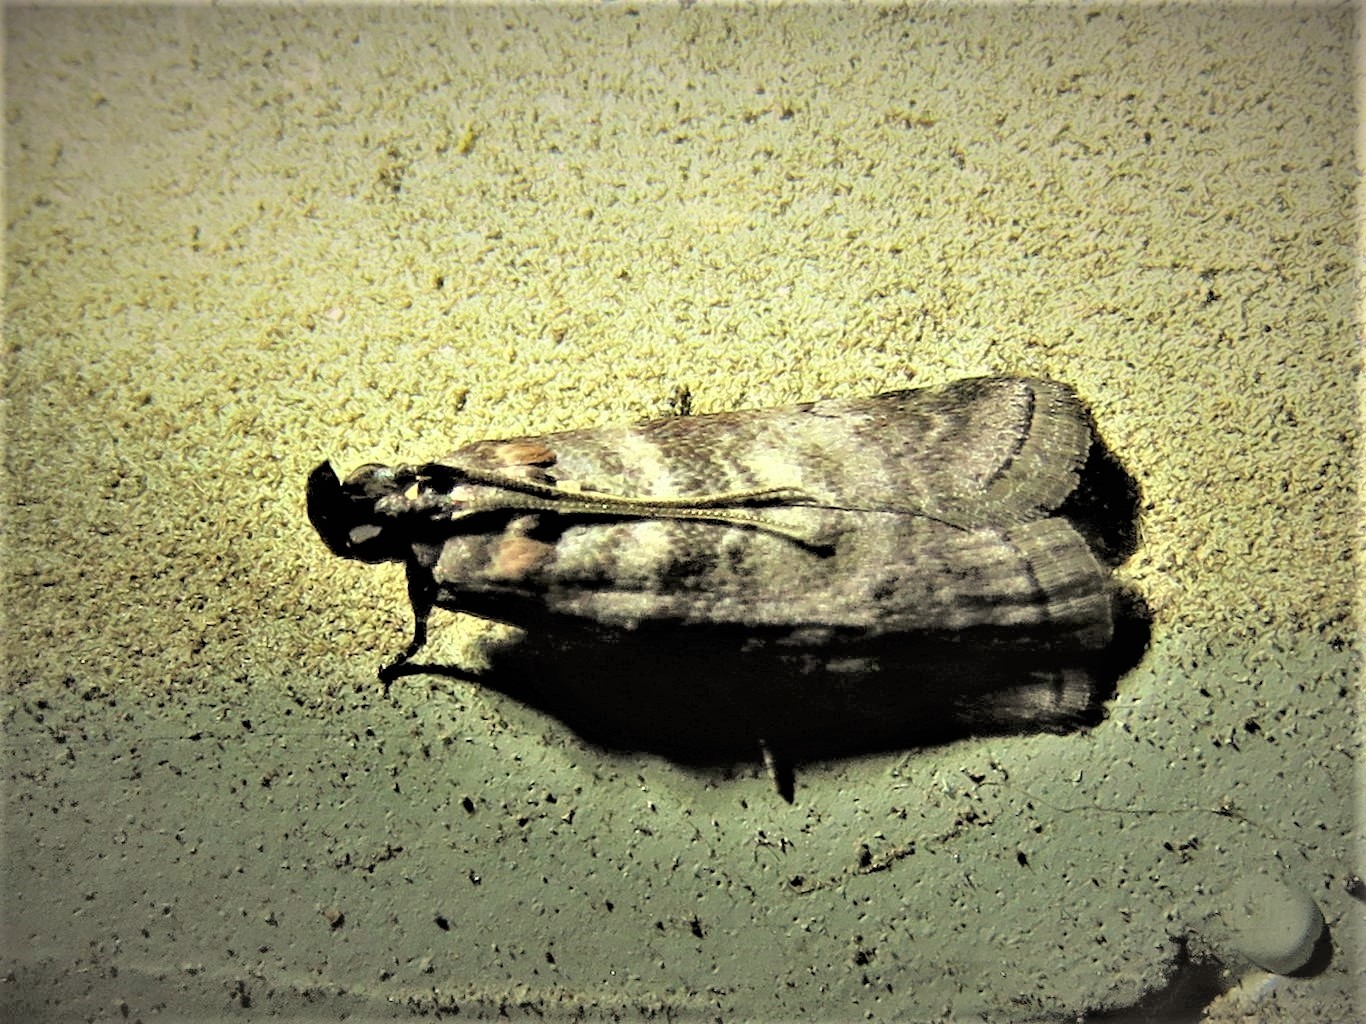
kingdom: Animalia
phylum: Arthropoda
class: Insecta
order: Lepidoptera
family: Pyralidae
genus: Sciota
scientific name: Sciota uvinella
